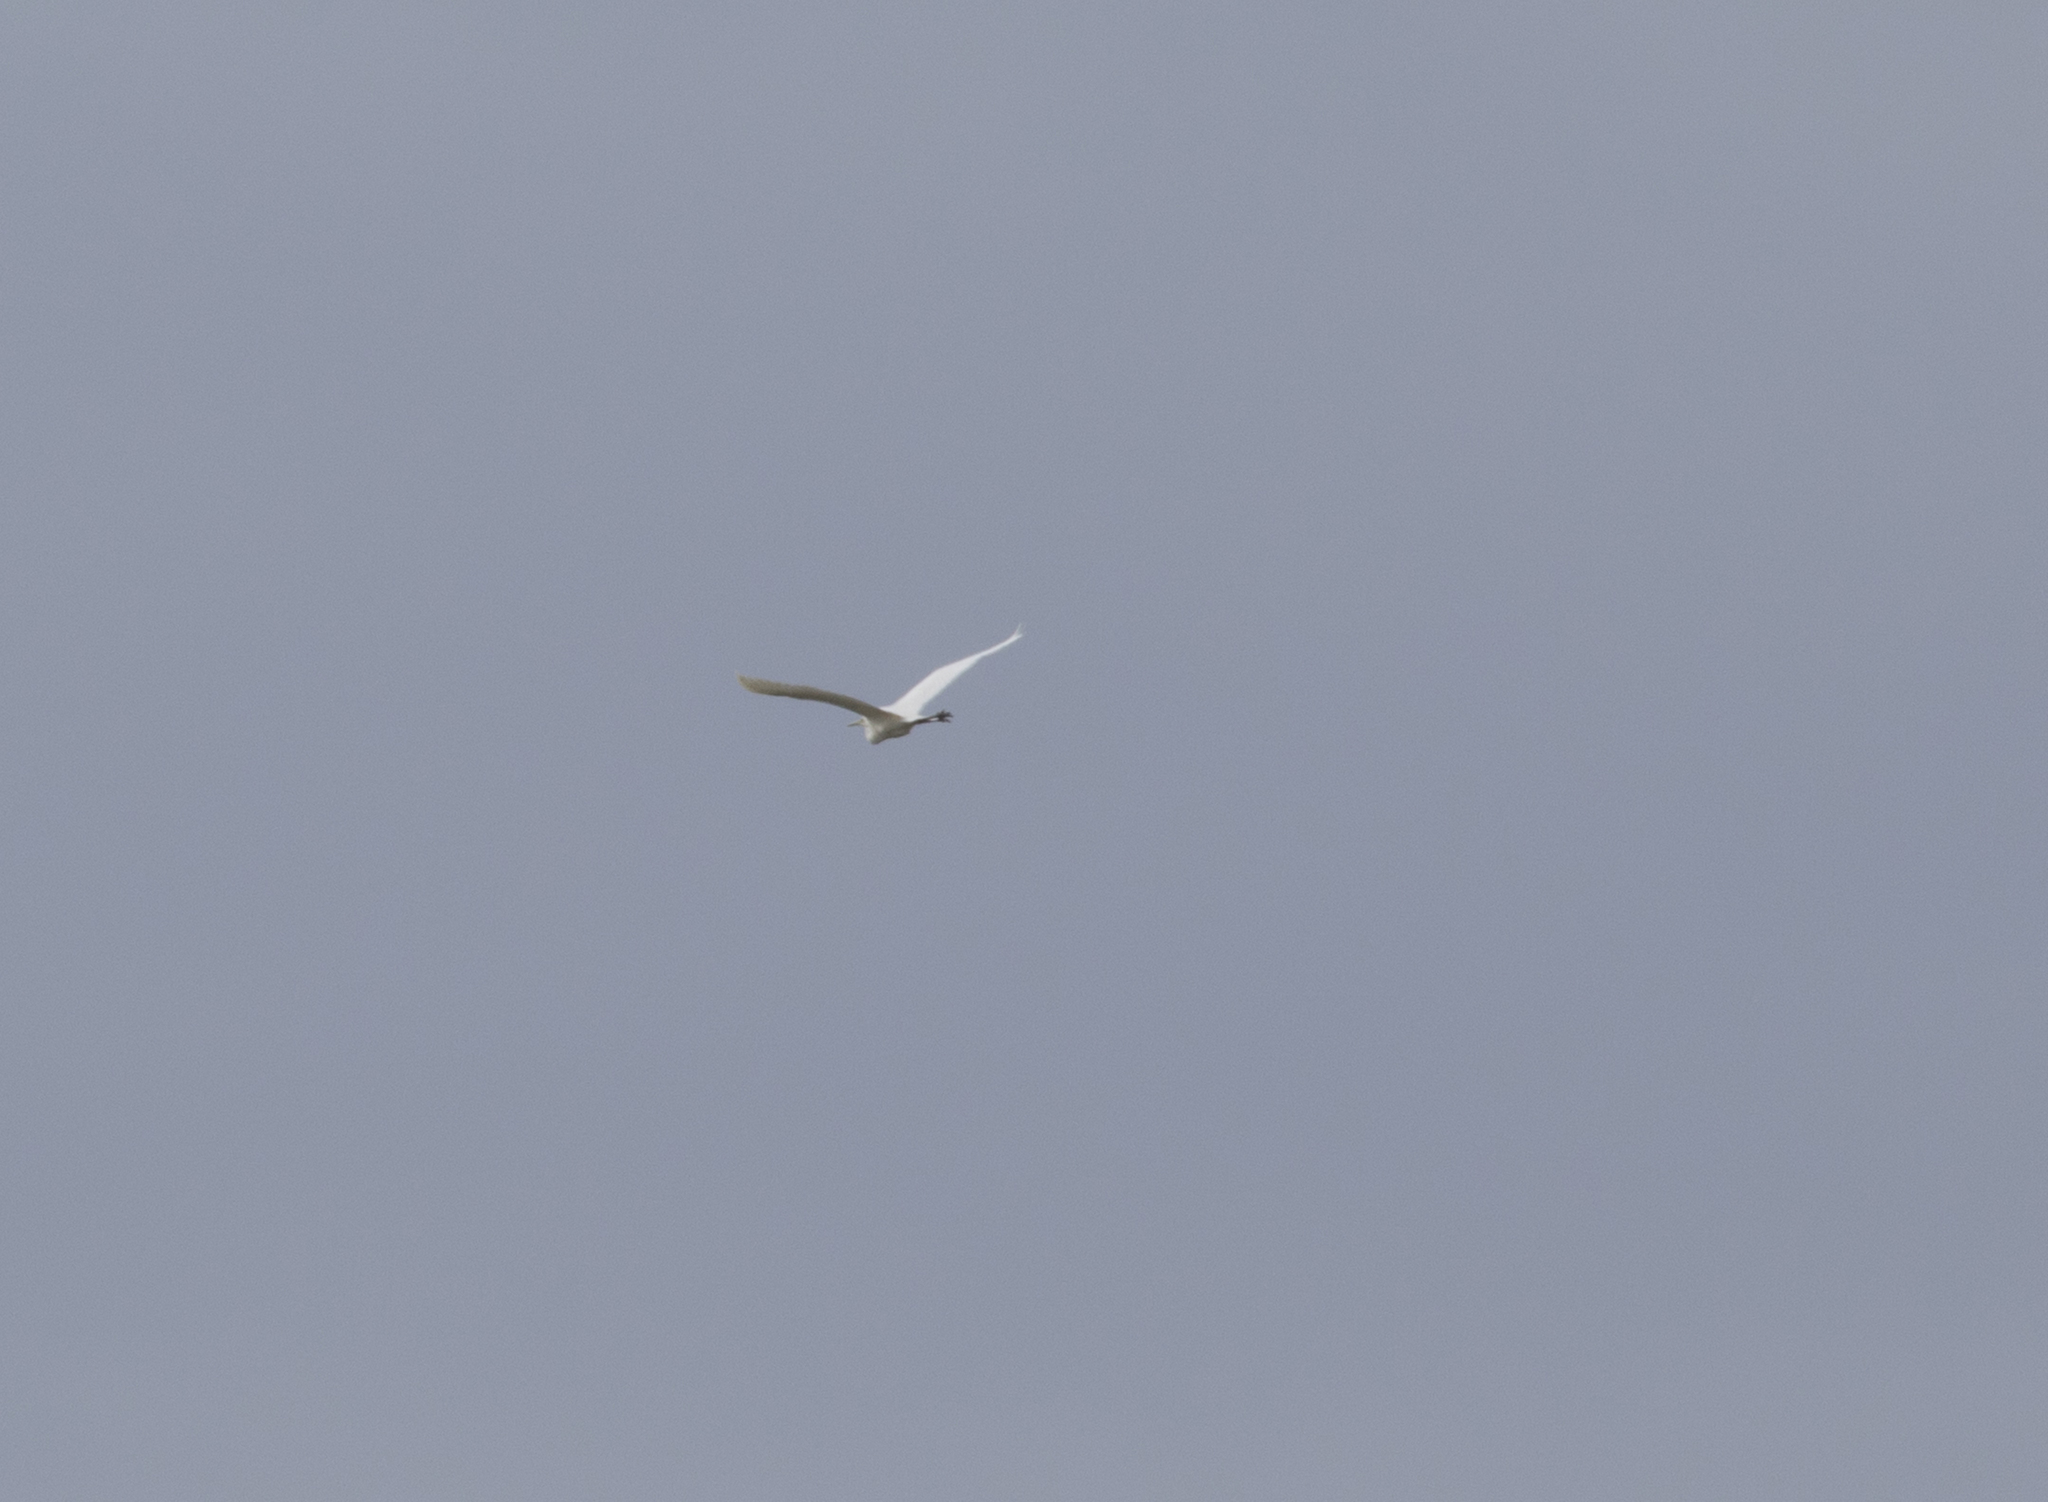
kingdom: Animalia
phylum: Chordata
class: Aves
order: Pelecaniformes
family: Ardeidae
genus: Ardea
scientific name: Ardea alba
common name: Great egret
